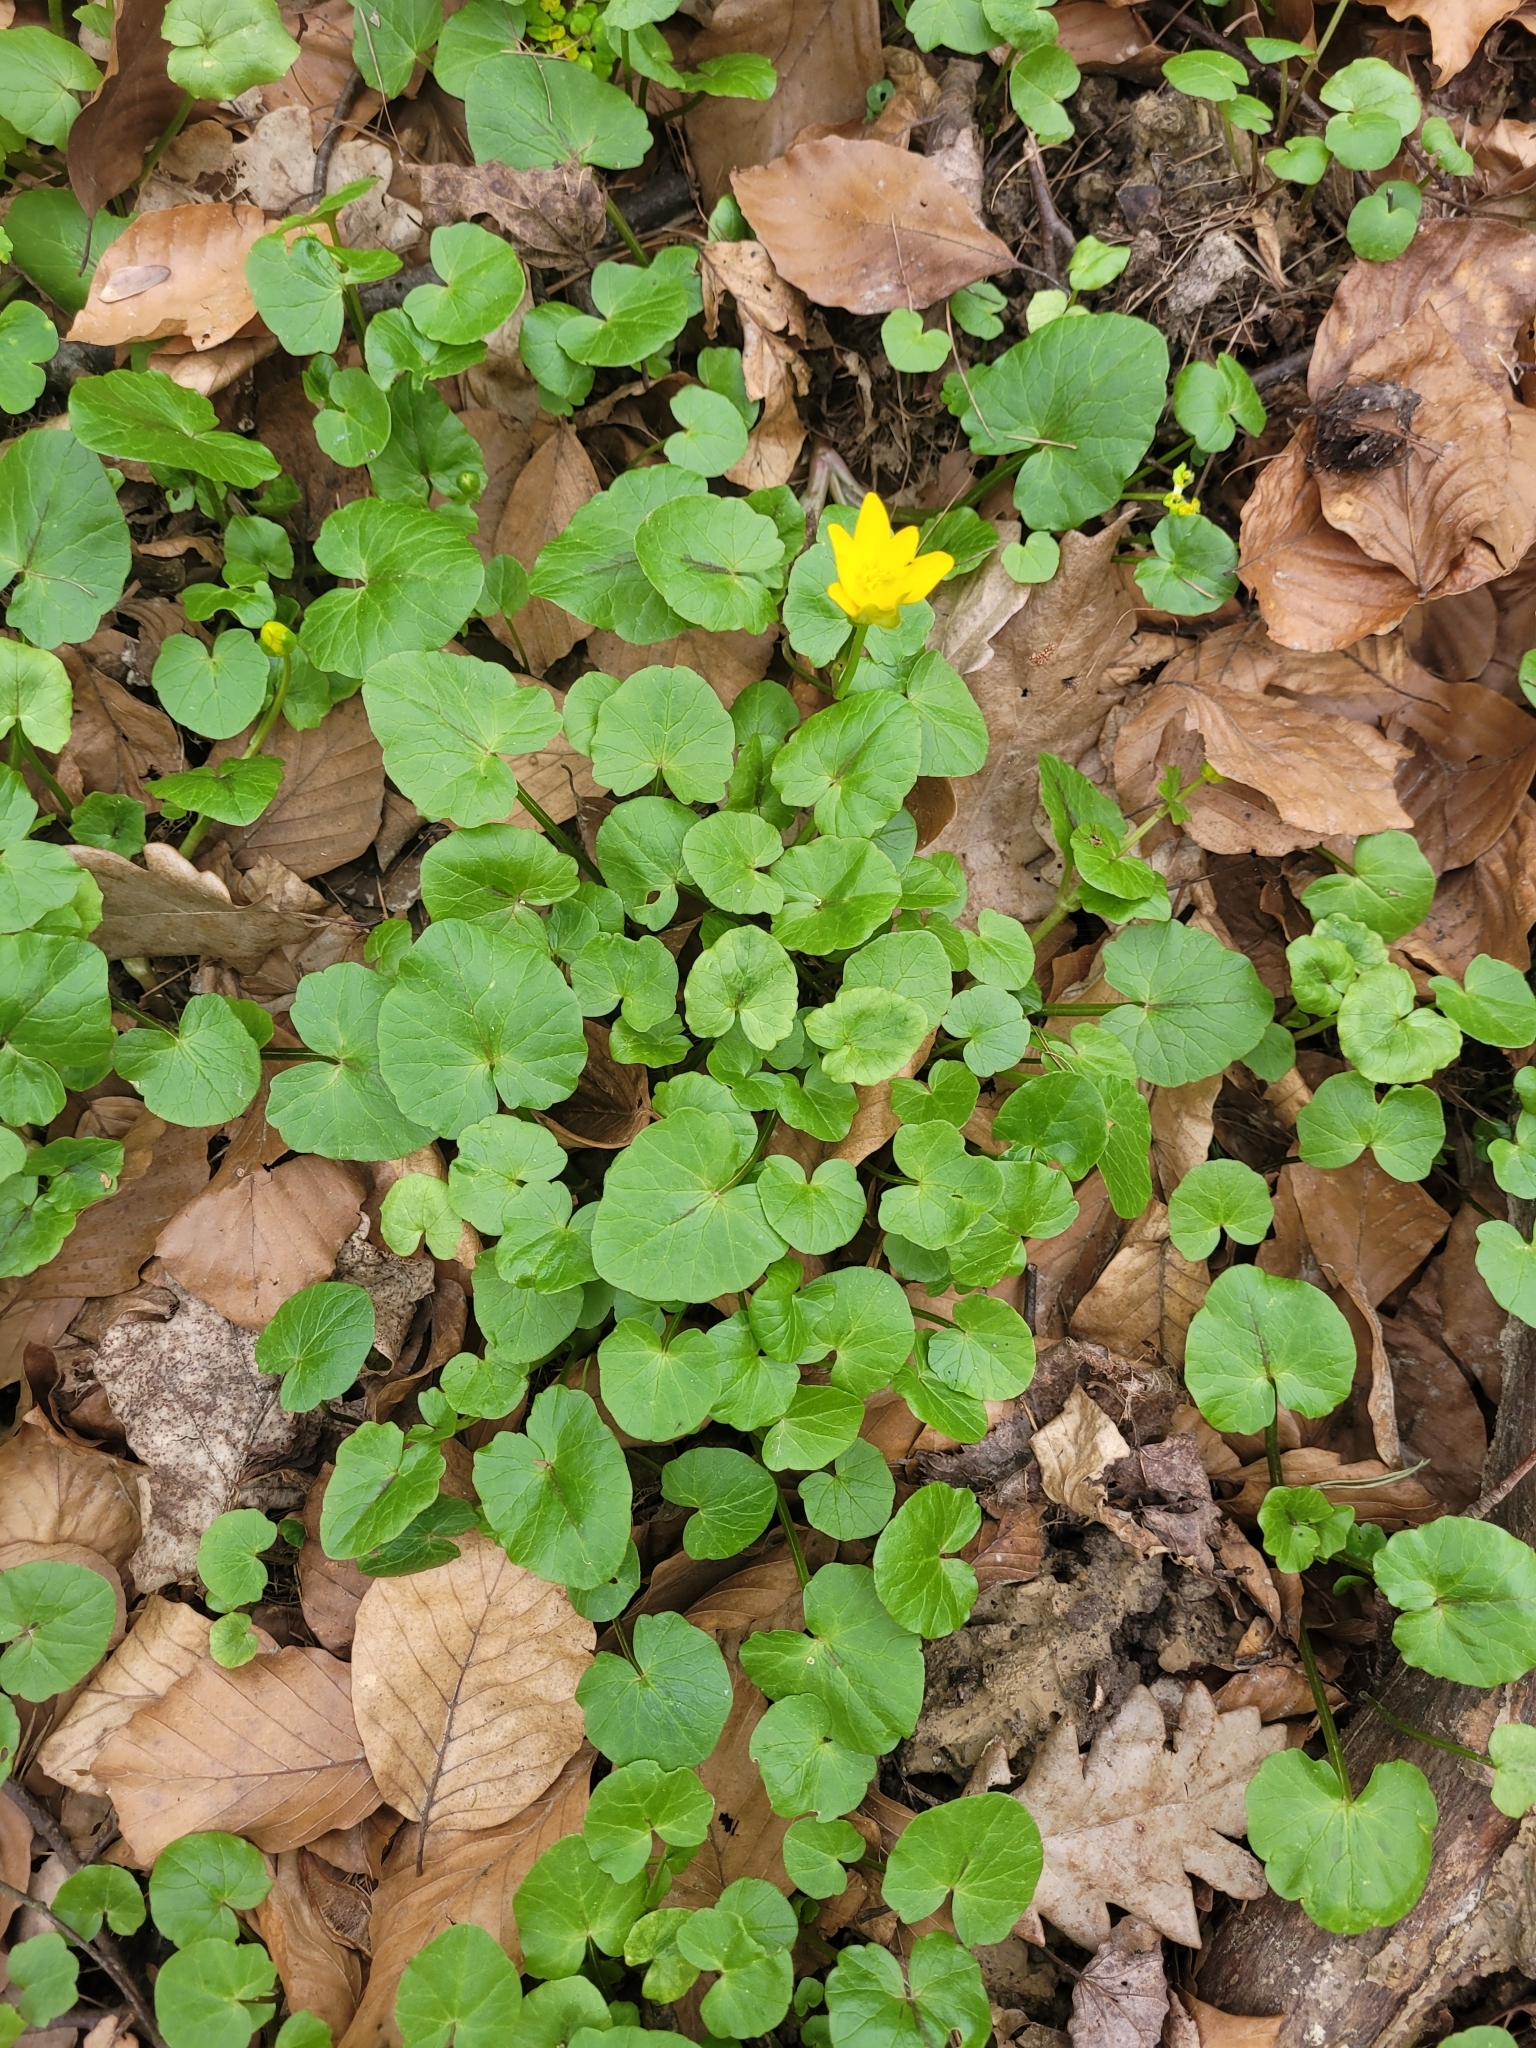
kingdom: Plantae
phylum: Tracheophyta
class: Magnoliopsida
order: Ranunculales
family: Ranunculaceae
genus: Ficaria
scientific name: Ficaria verna
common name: Lesser celandine
